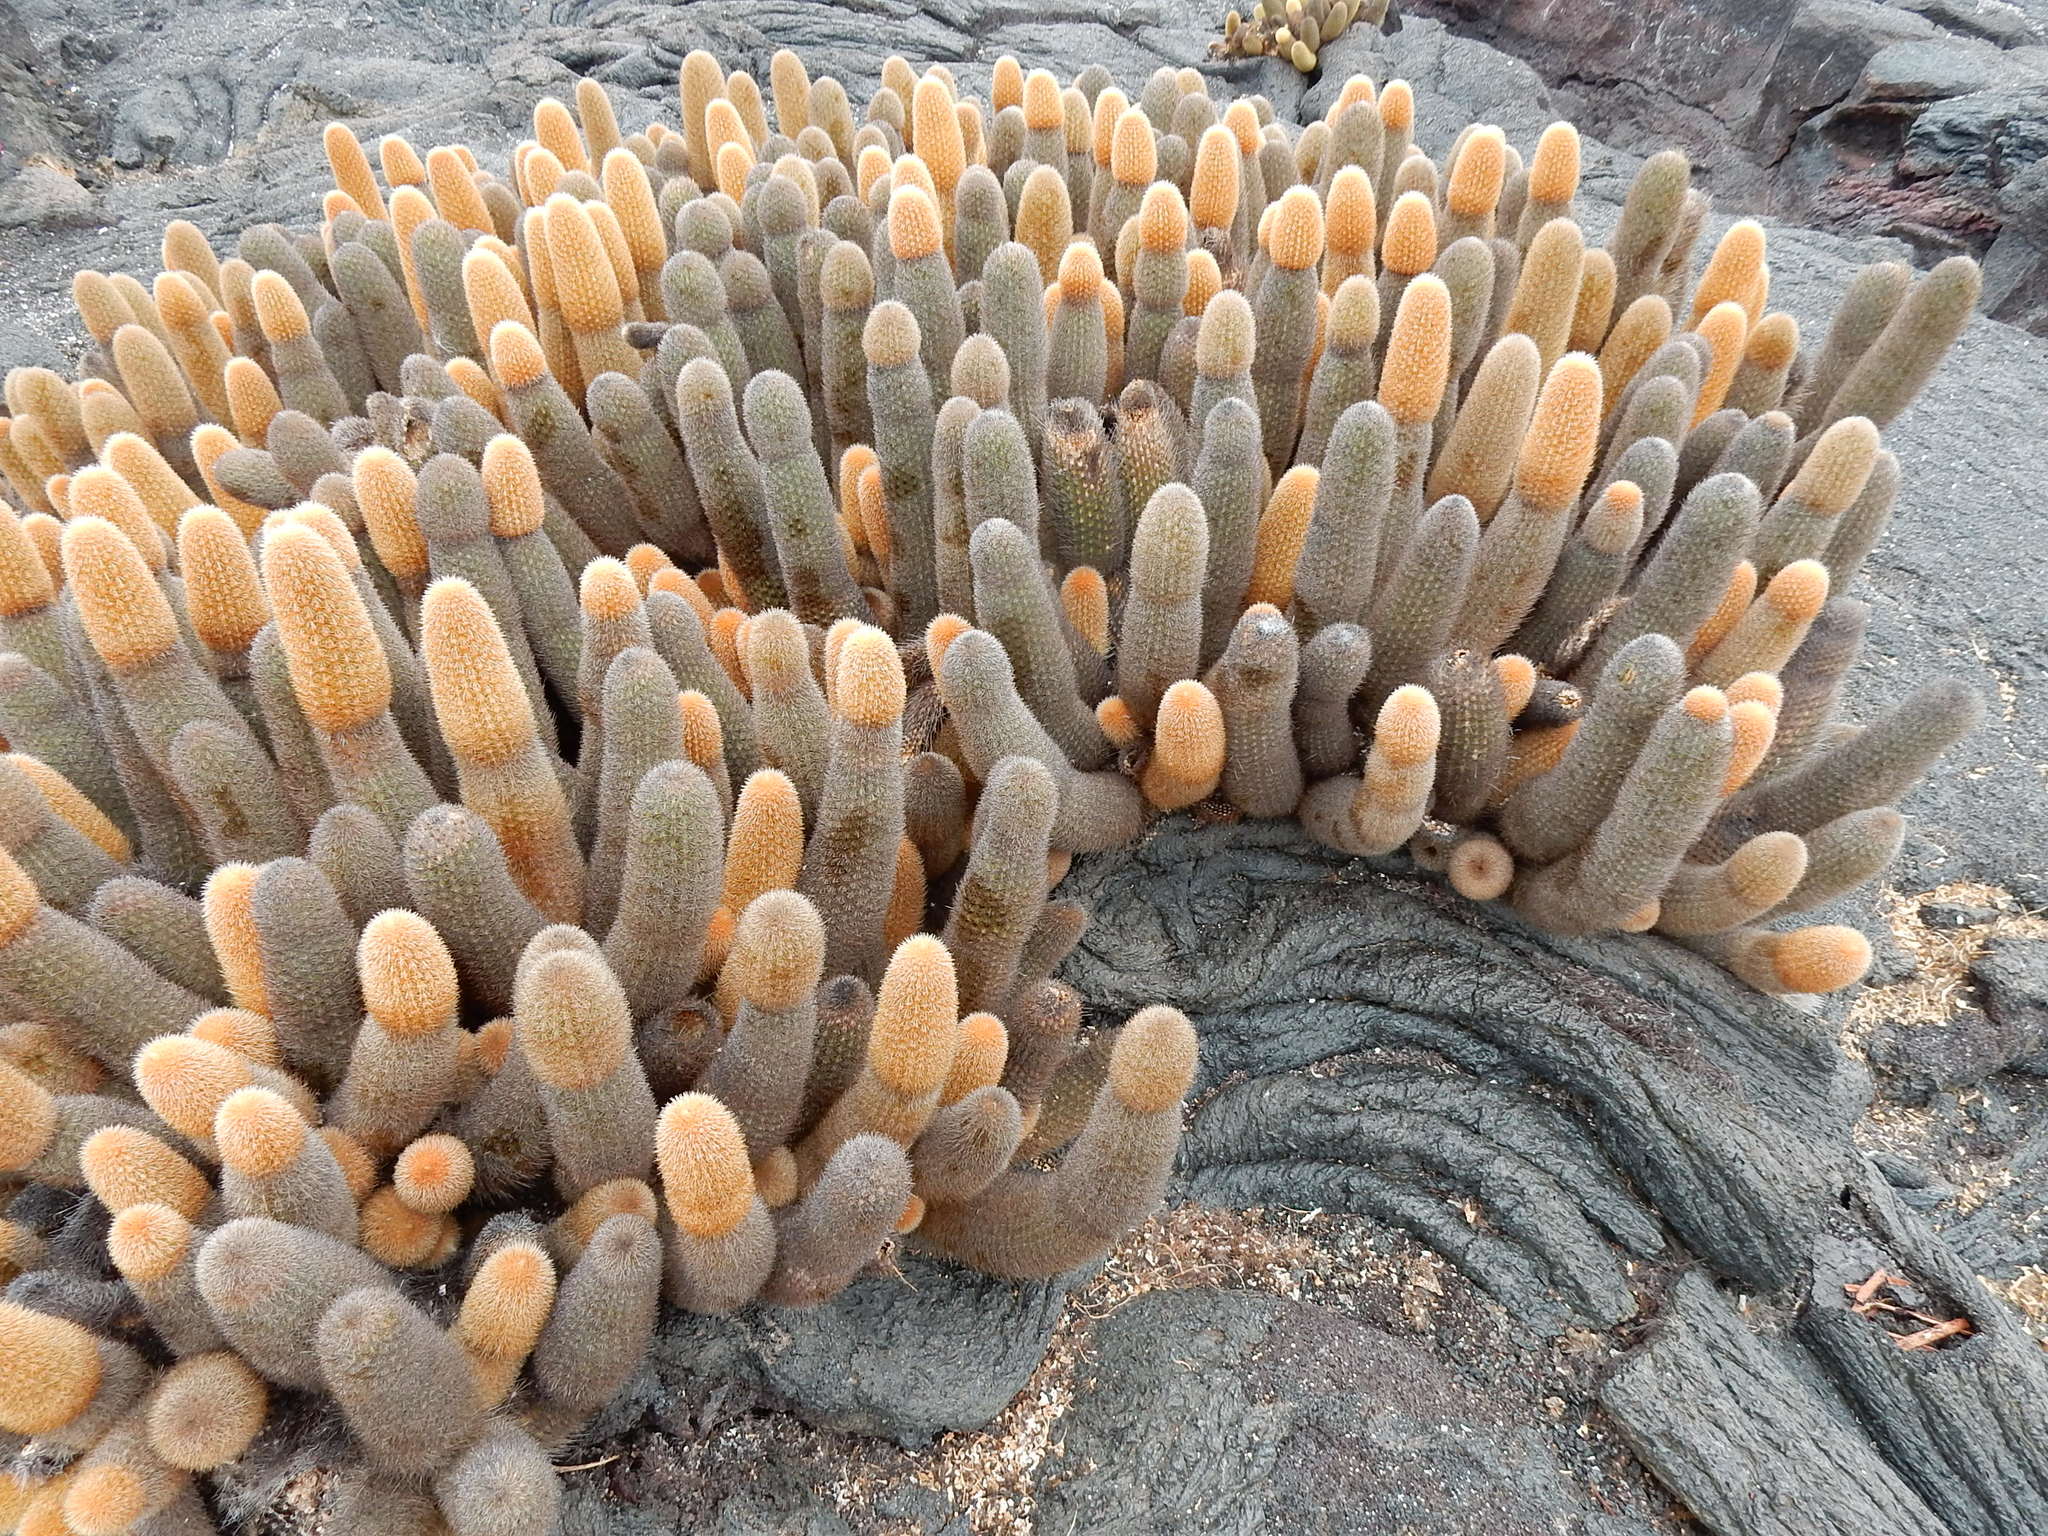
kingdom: Plantae
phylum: Tracheophyta
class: Magnoliopsida
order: Caryophyllales
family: Cactaceae
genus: Brachycereus
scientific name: Brachycereus nesioticus
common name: Lava cactus
